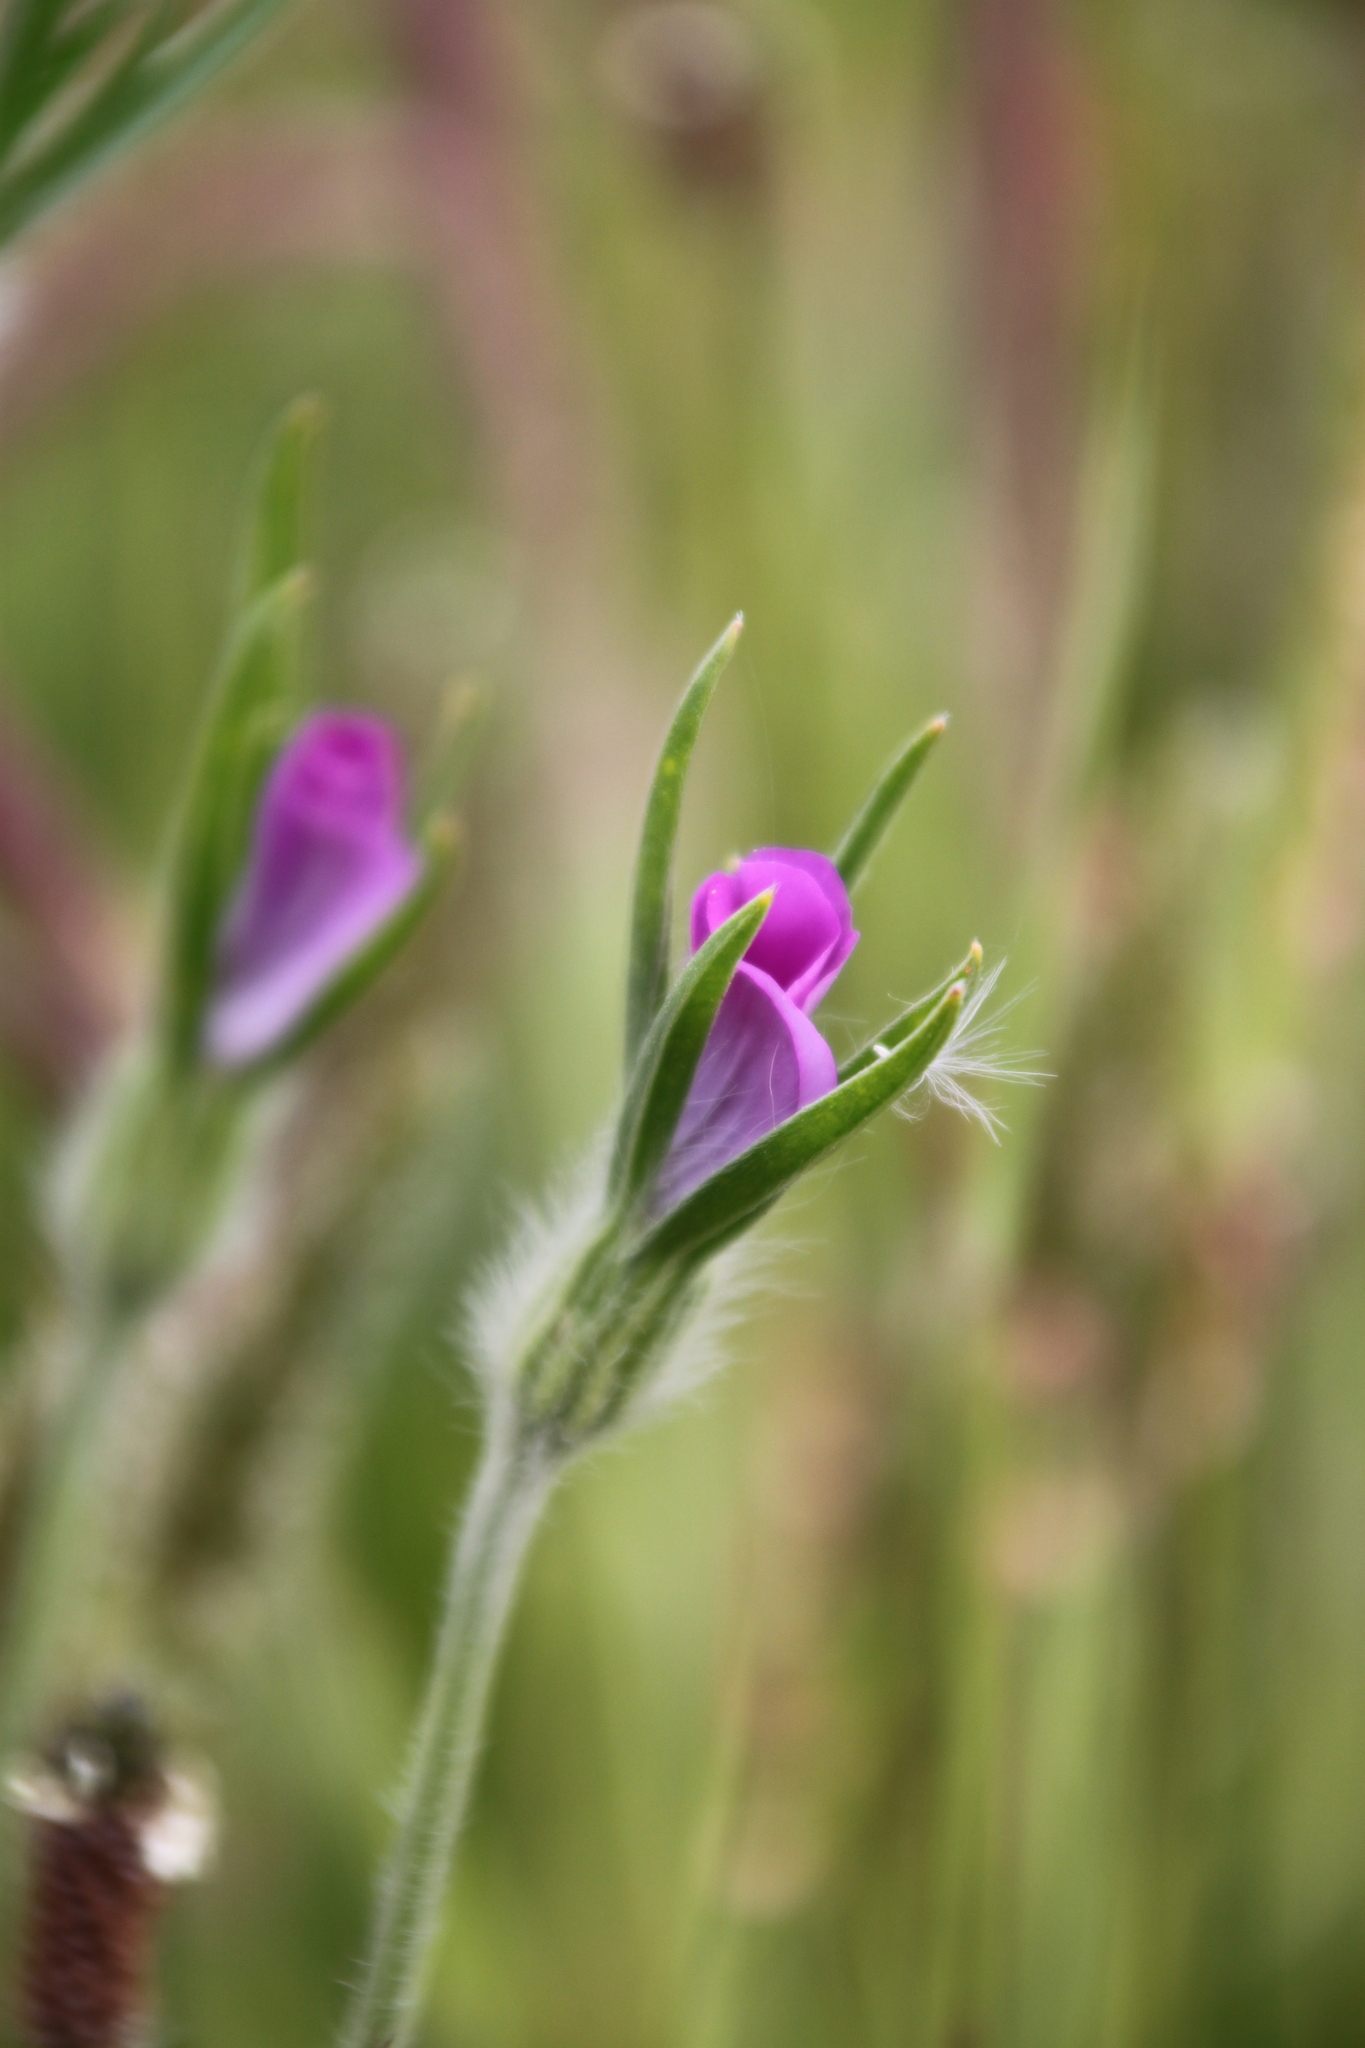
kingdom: Plantae
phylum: Tracheophyta
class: Magnoliopsida
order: Caryophyllales
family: Caryophyllaceae
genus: Agrostemma
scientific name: Agrostemma githago
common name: Common corncockle
